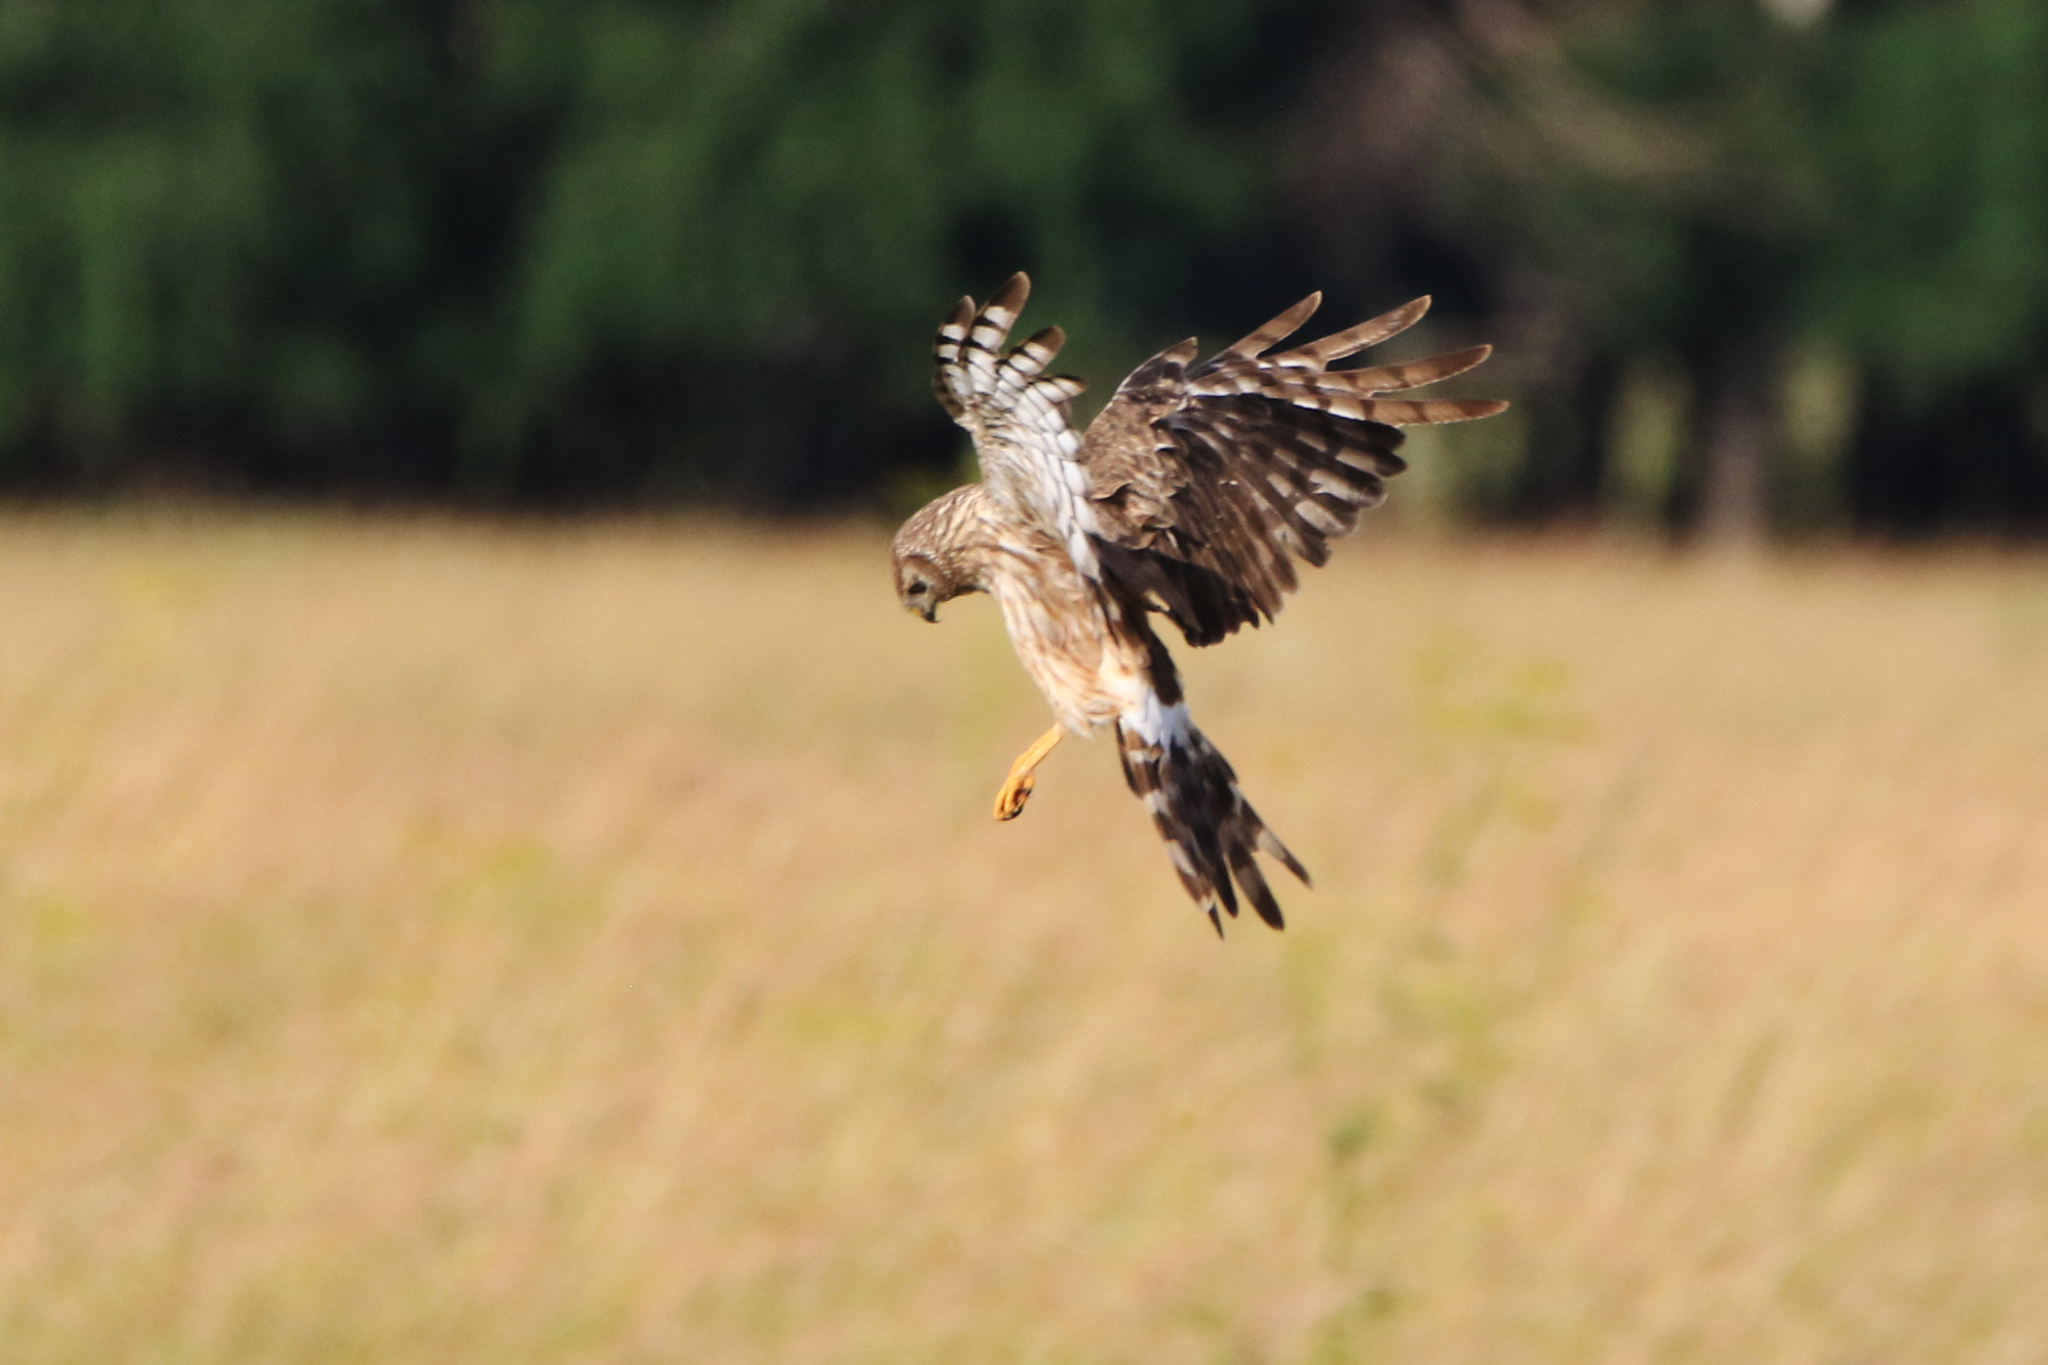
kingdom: Animalia
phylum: Chordata
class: Aves
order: Accipitriformes
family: Accipitridae
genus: Circus
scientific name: Circus cyaneus
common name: Hen harrier
